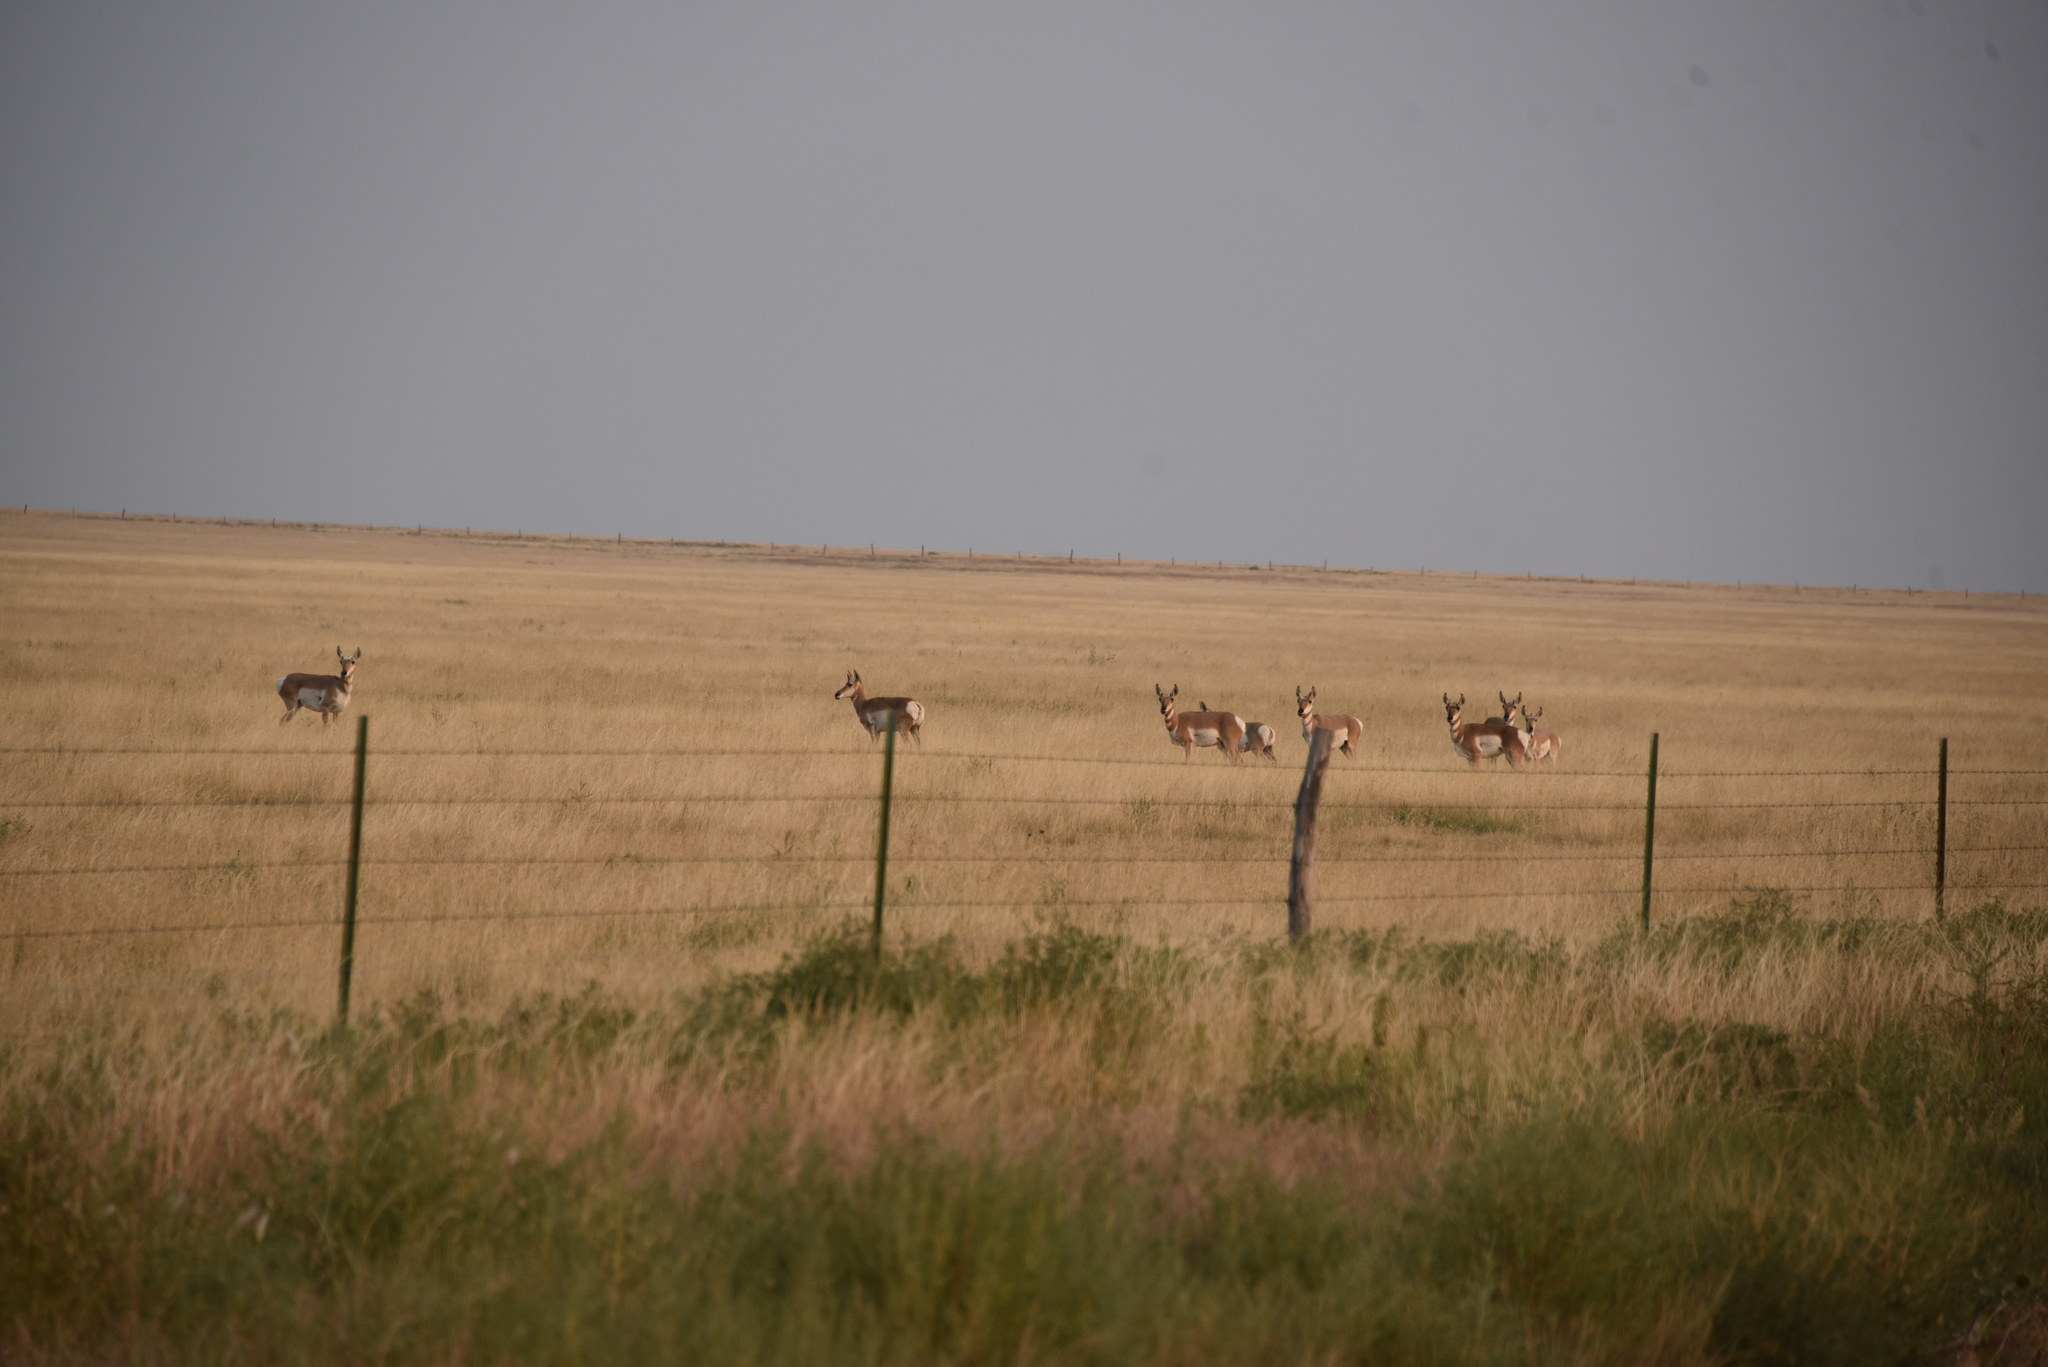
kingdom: Animalia
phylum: Chordata
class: Mammalia
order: Artiodactyla
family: Antilocapridae
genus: Antilocapra
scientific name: Antilocapra americana
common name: Pronghorn
